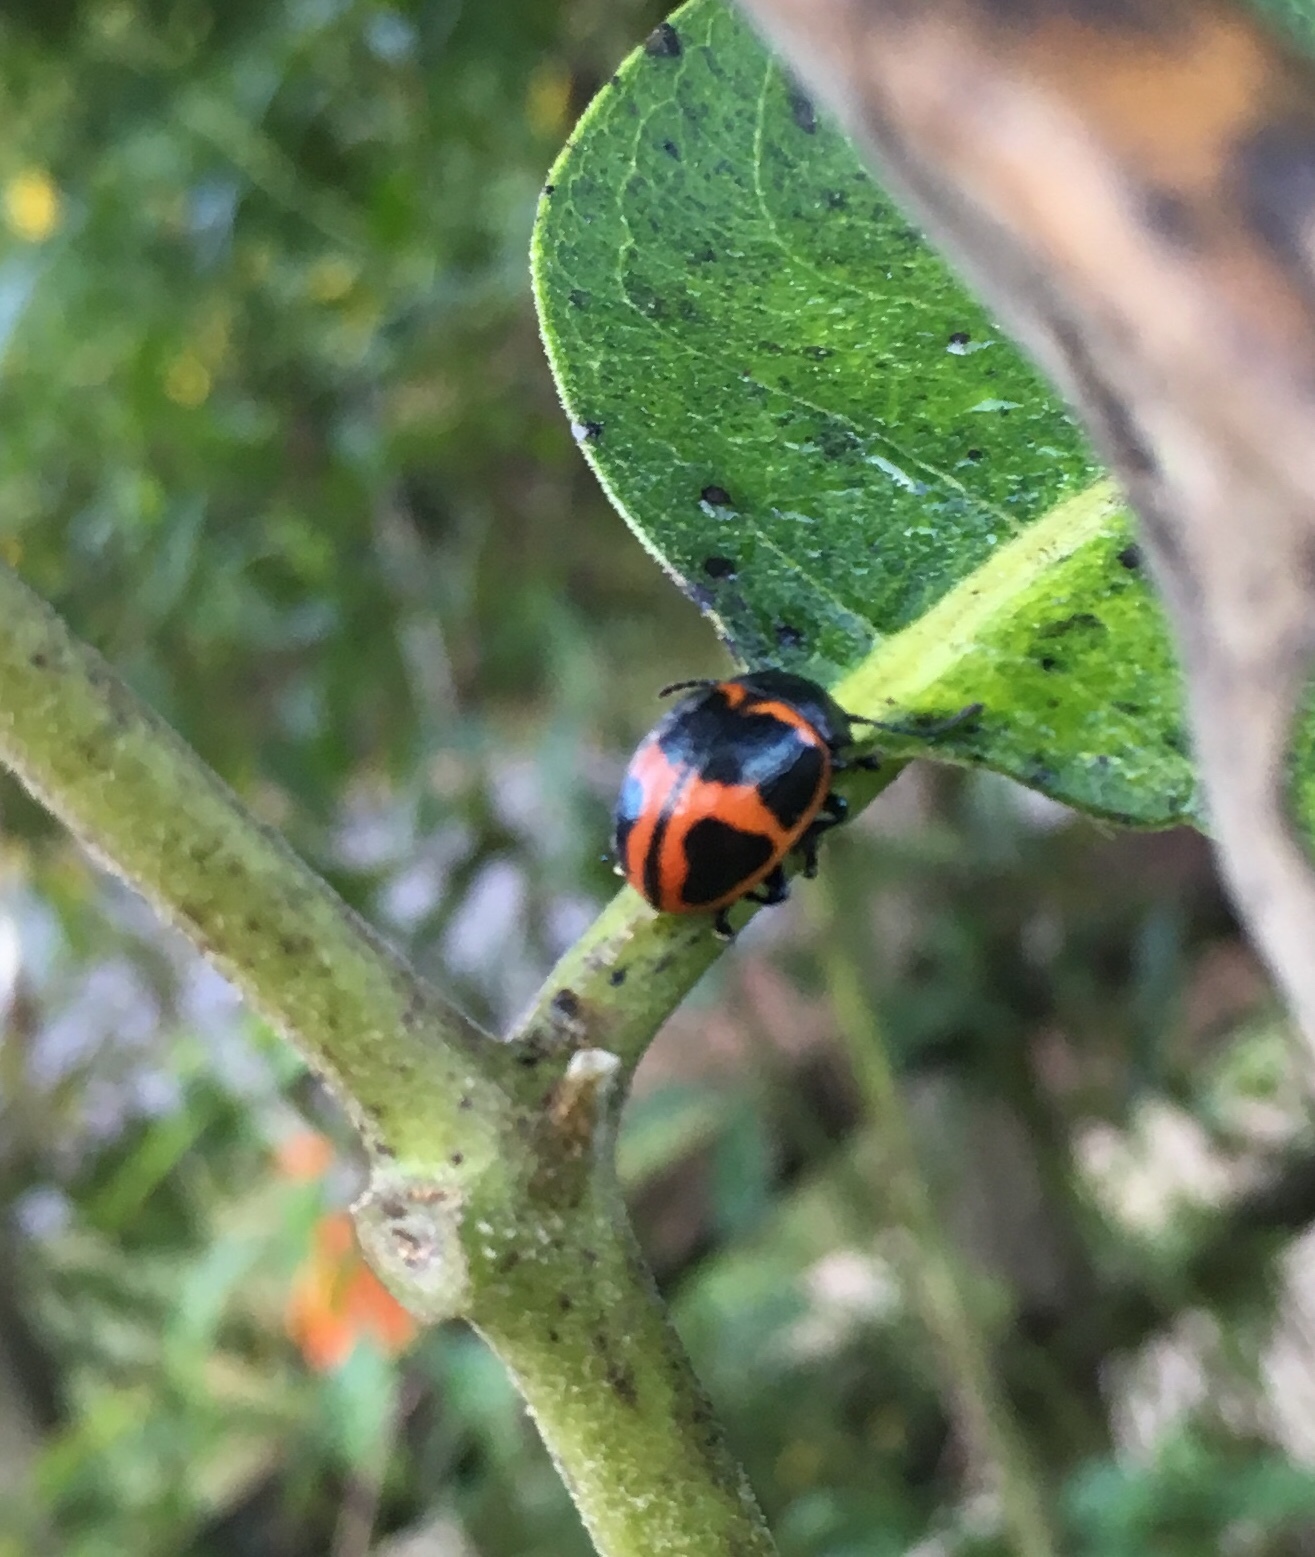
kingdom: Animalia
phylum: Arthropoda
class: Insecta
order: Coleoptera
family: Chrysomelidae
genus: Labidomera
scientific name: Labidomera clivicollis
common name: Swamp milkweed leaf beetle
